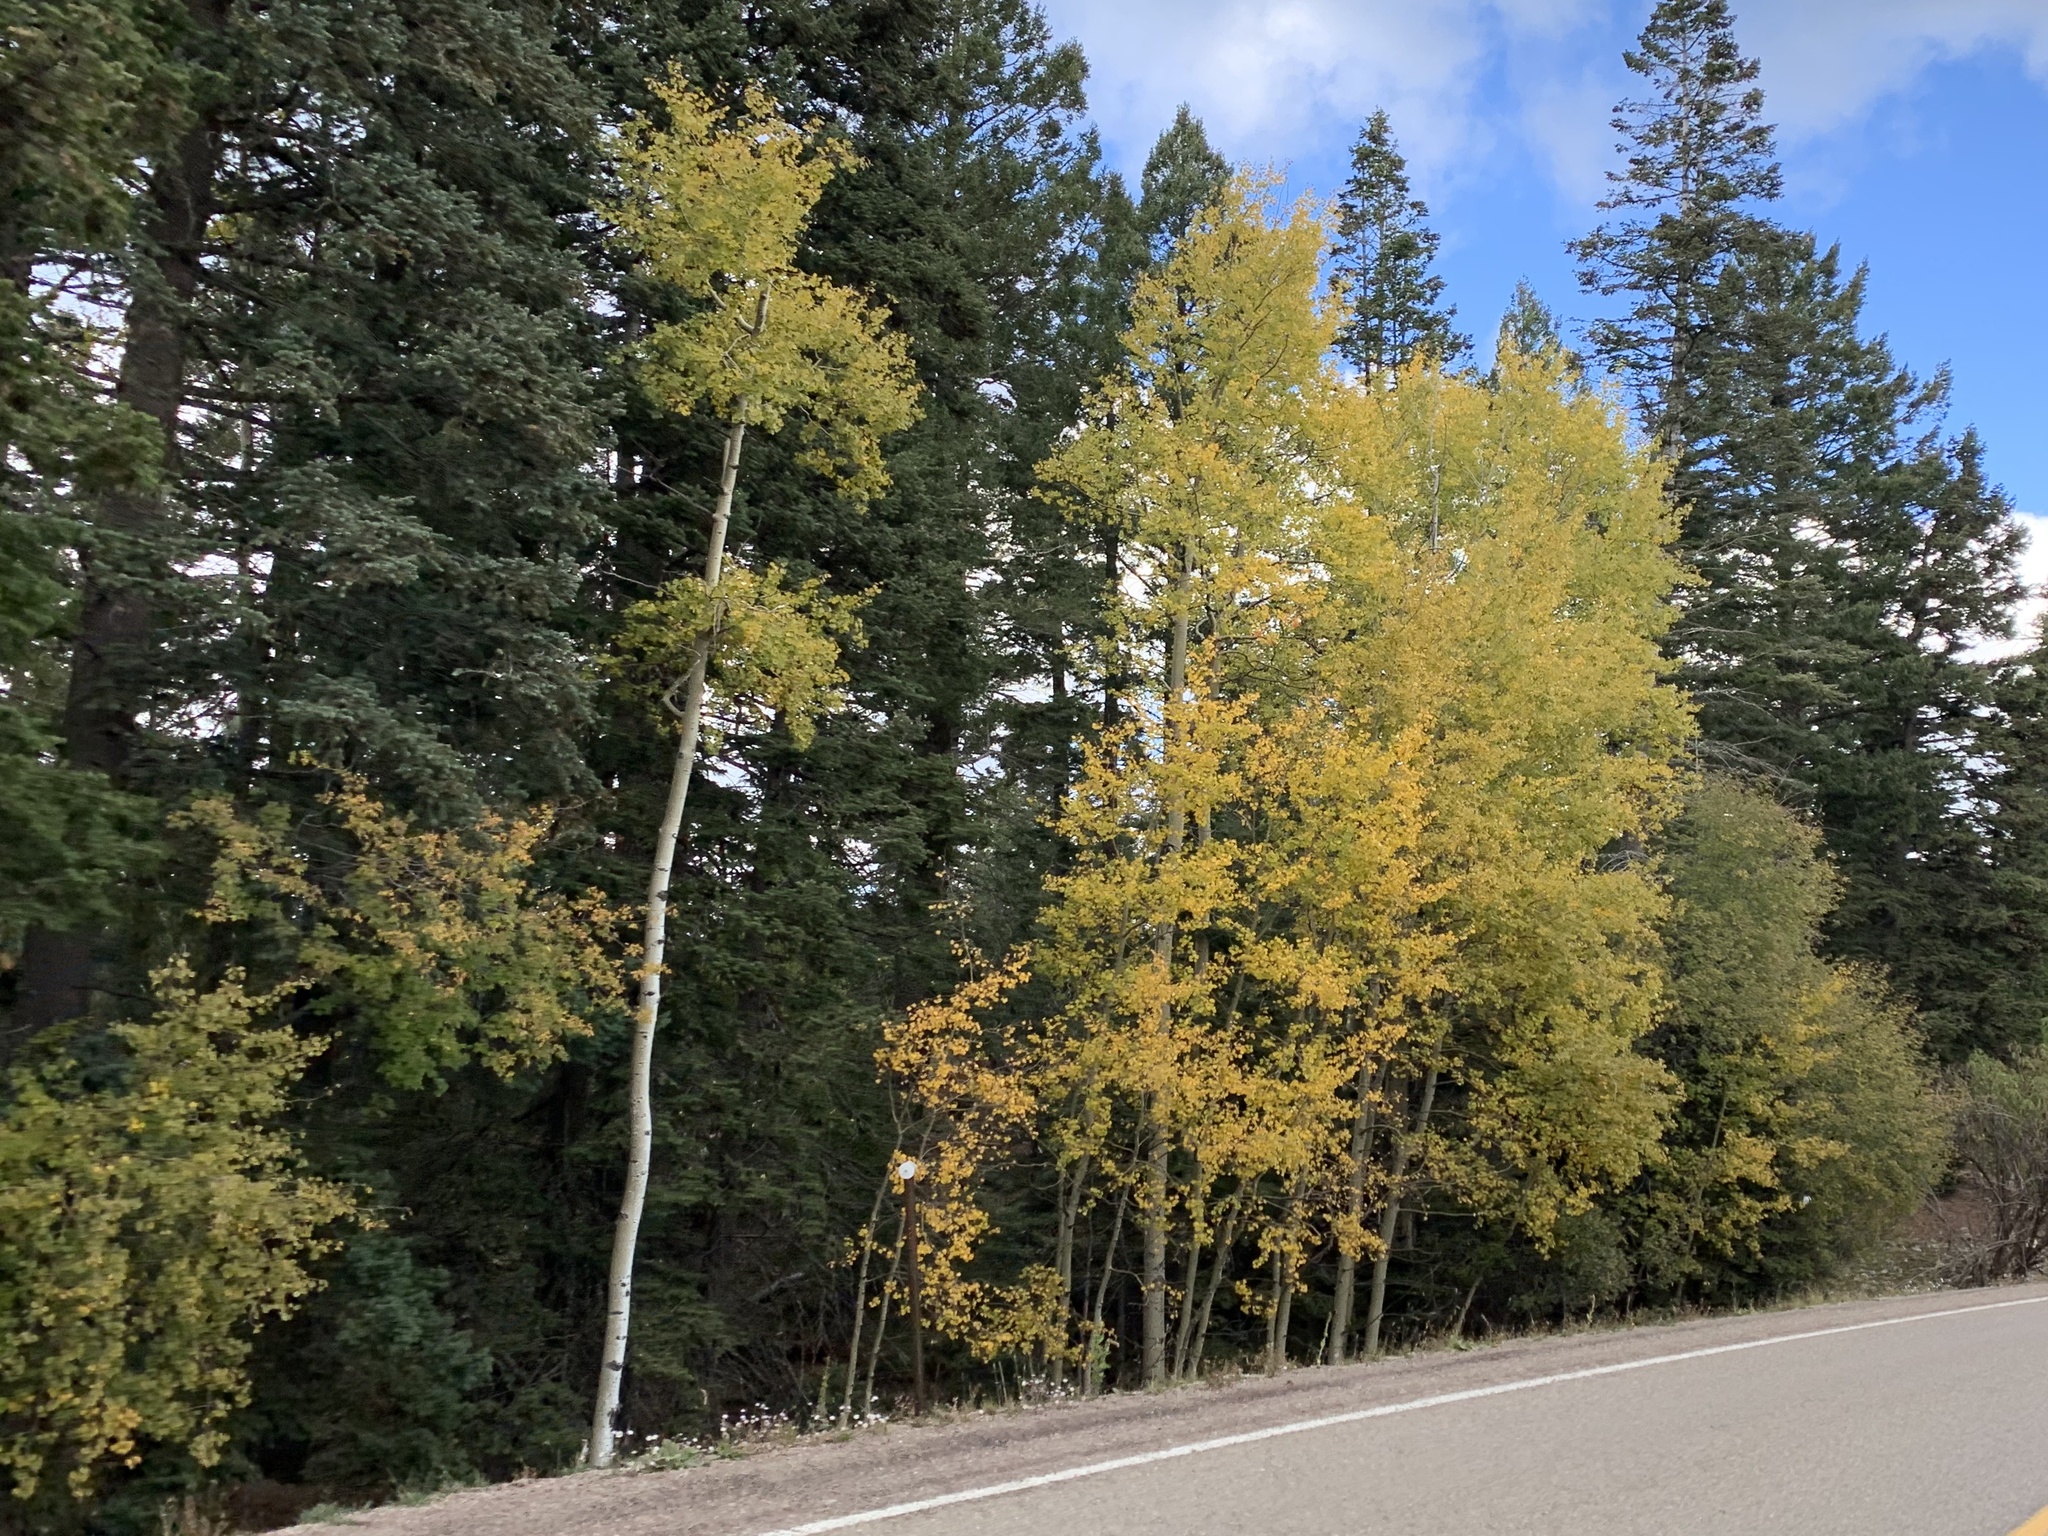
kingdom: Plantae
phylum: Tracheophyta
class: Magnoliopsida
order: Malpighiales
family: Salicaceae
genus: Populus
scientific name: Populus tremuloides
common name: Quaking aspen
